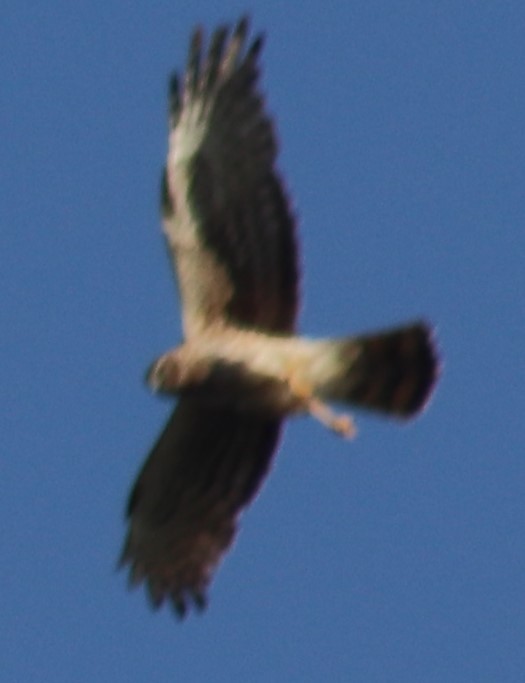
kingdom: Animalia
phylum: Chordata
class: Aves
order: Accipitriformes
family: Accipitridae
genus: Circus
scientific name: Circus cyaneus
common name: Hen harrier
